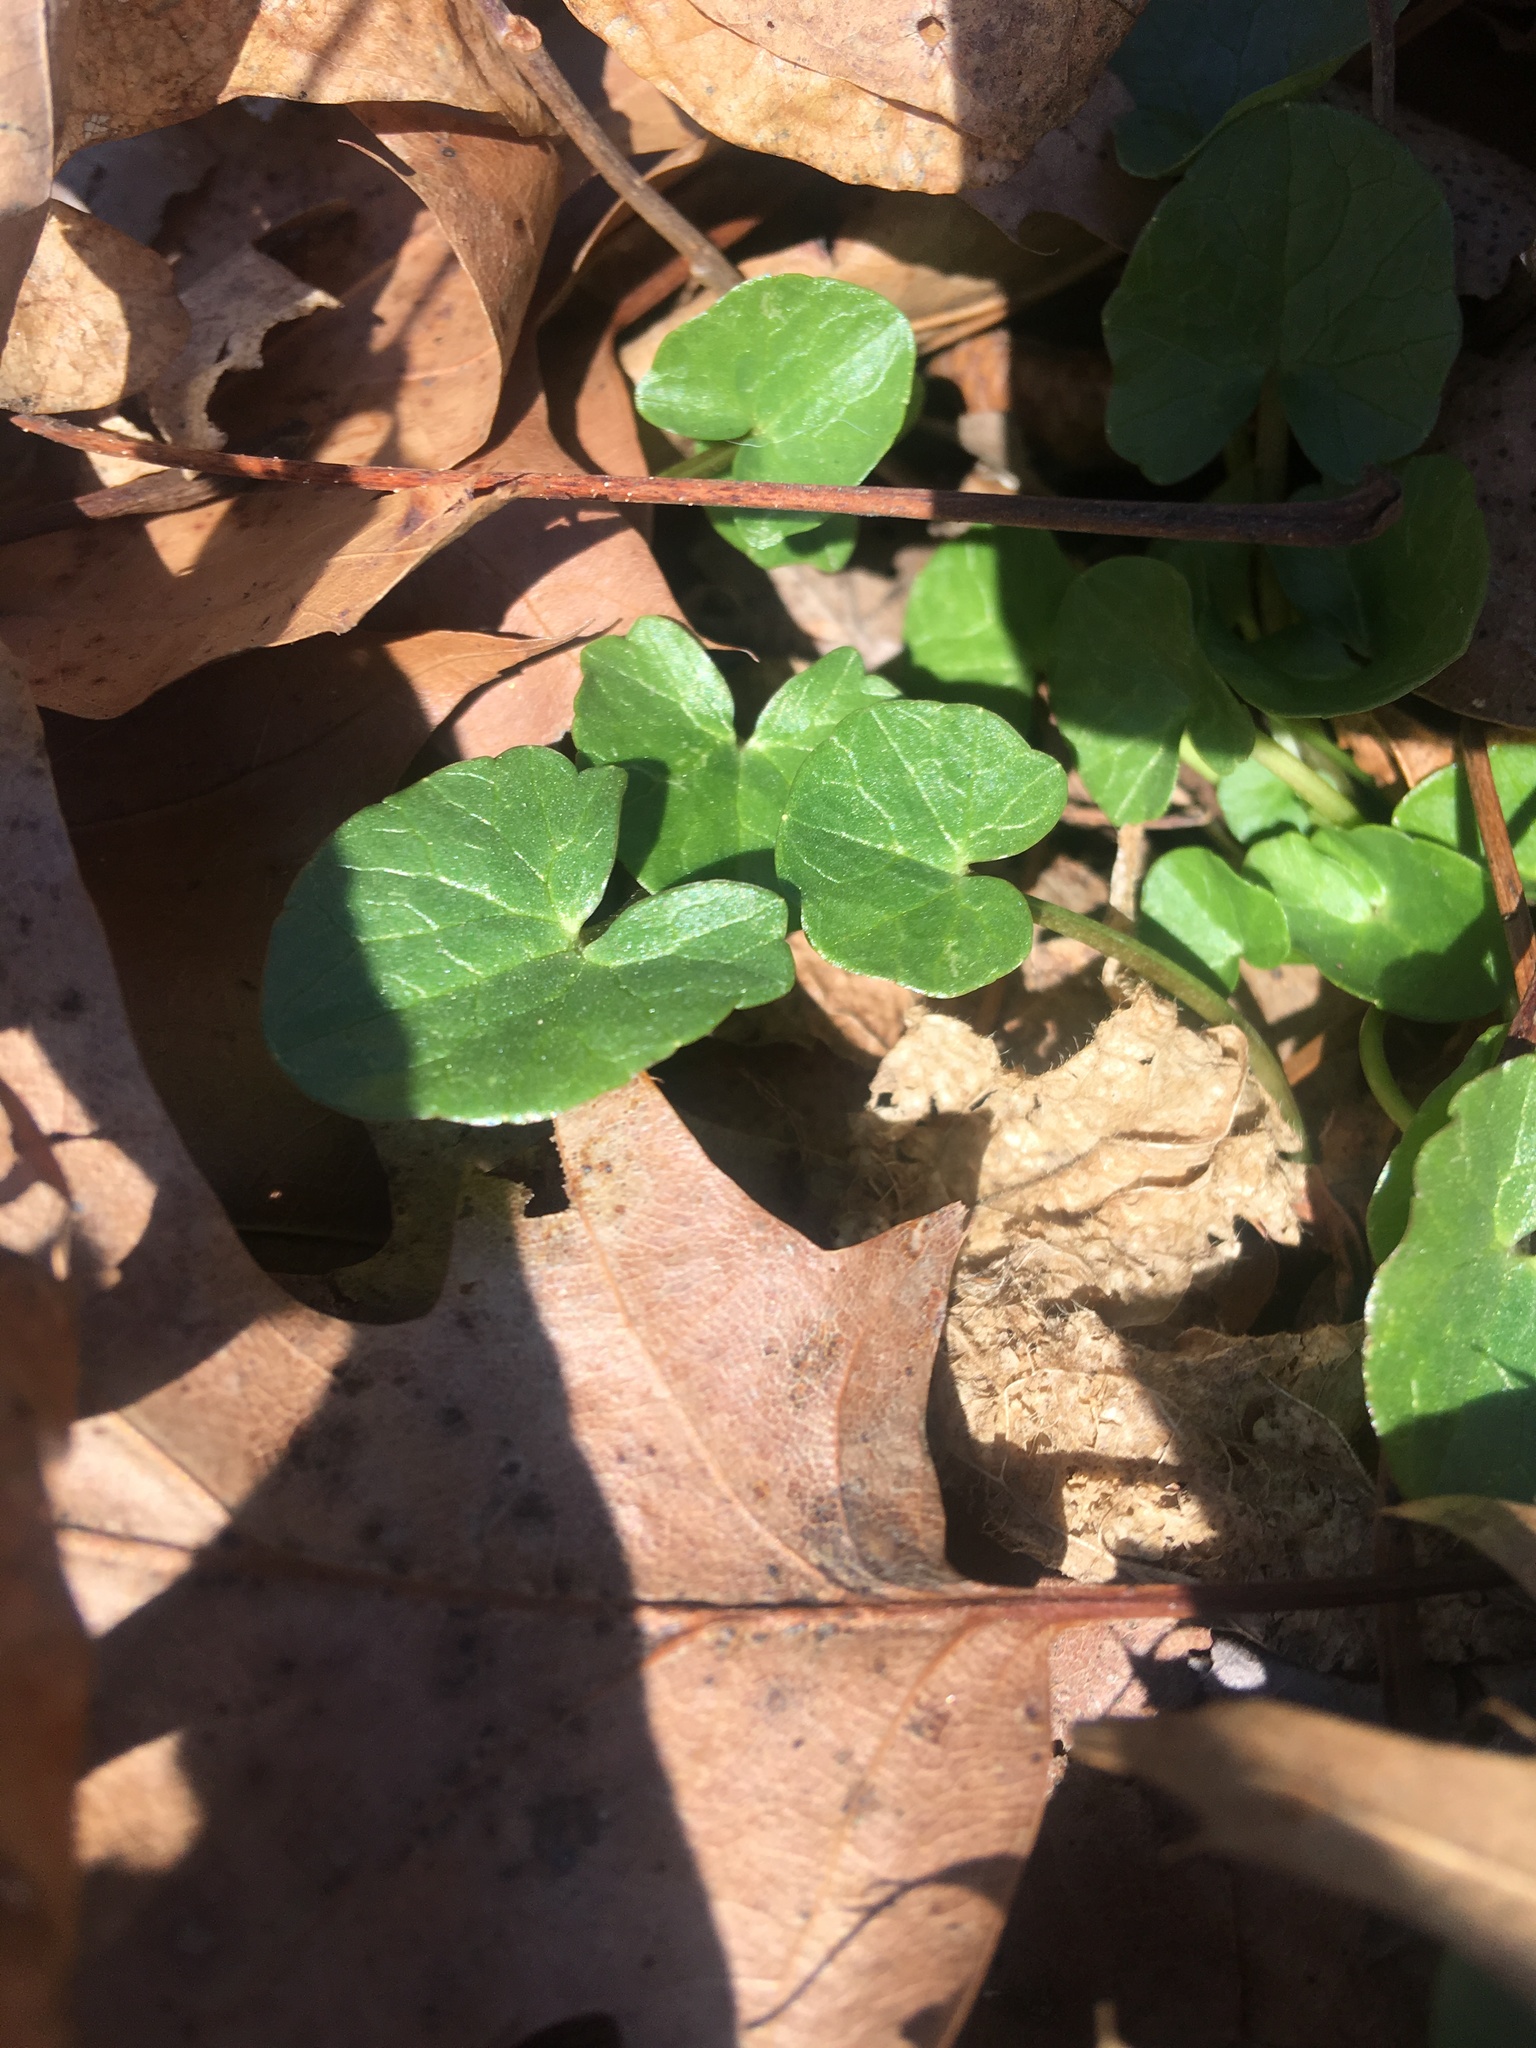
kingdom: Plantae
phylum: Tracheophyta
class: Magnoliopsida
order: Ranunculales
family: Ranunculaceae
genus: Ficaria
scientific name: Ficaria verna
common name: Lesser celandine
